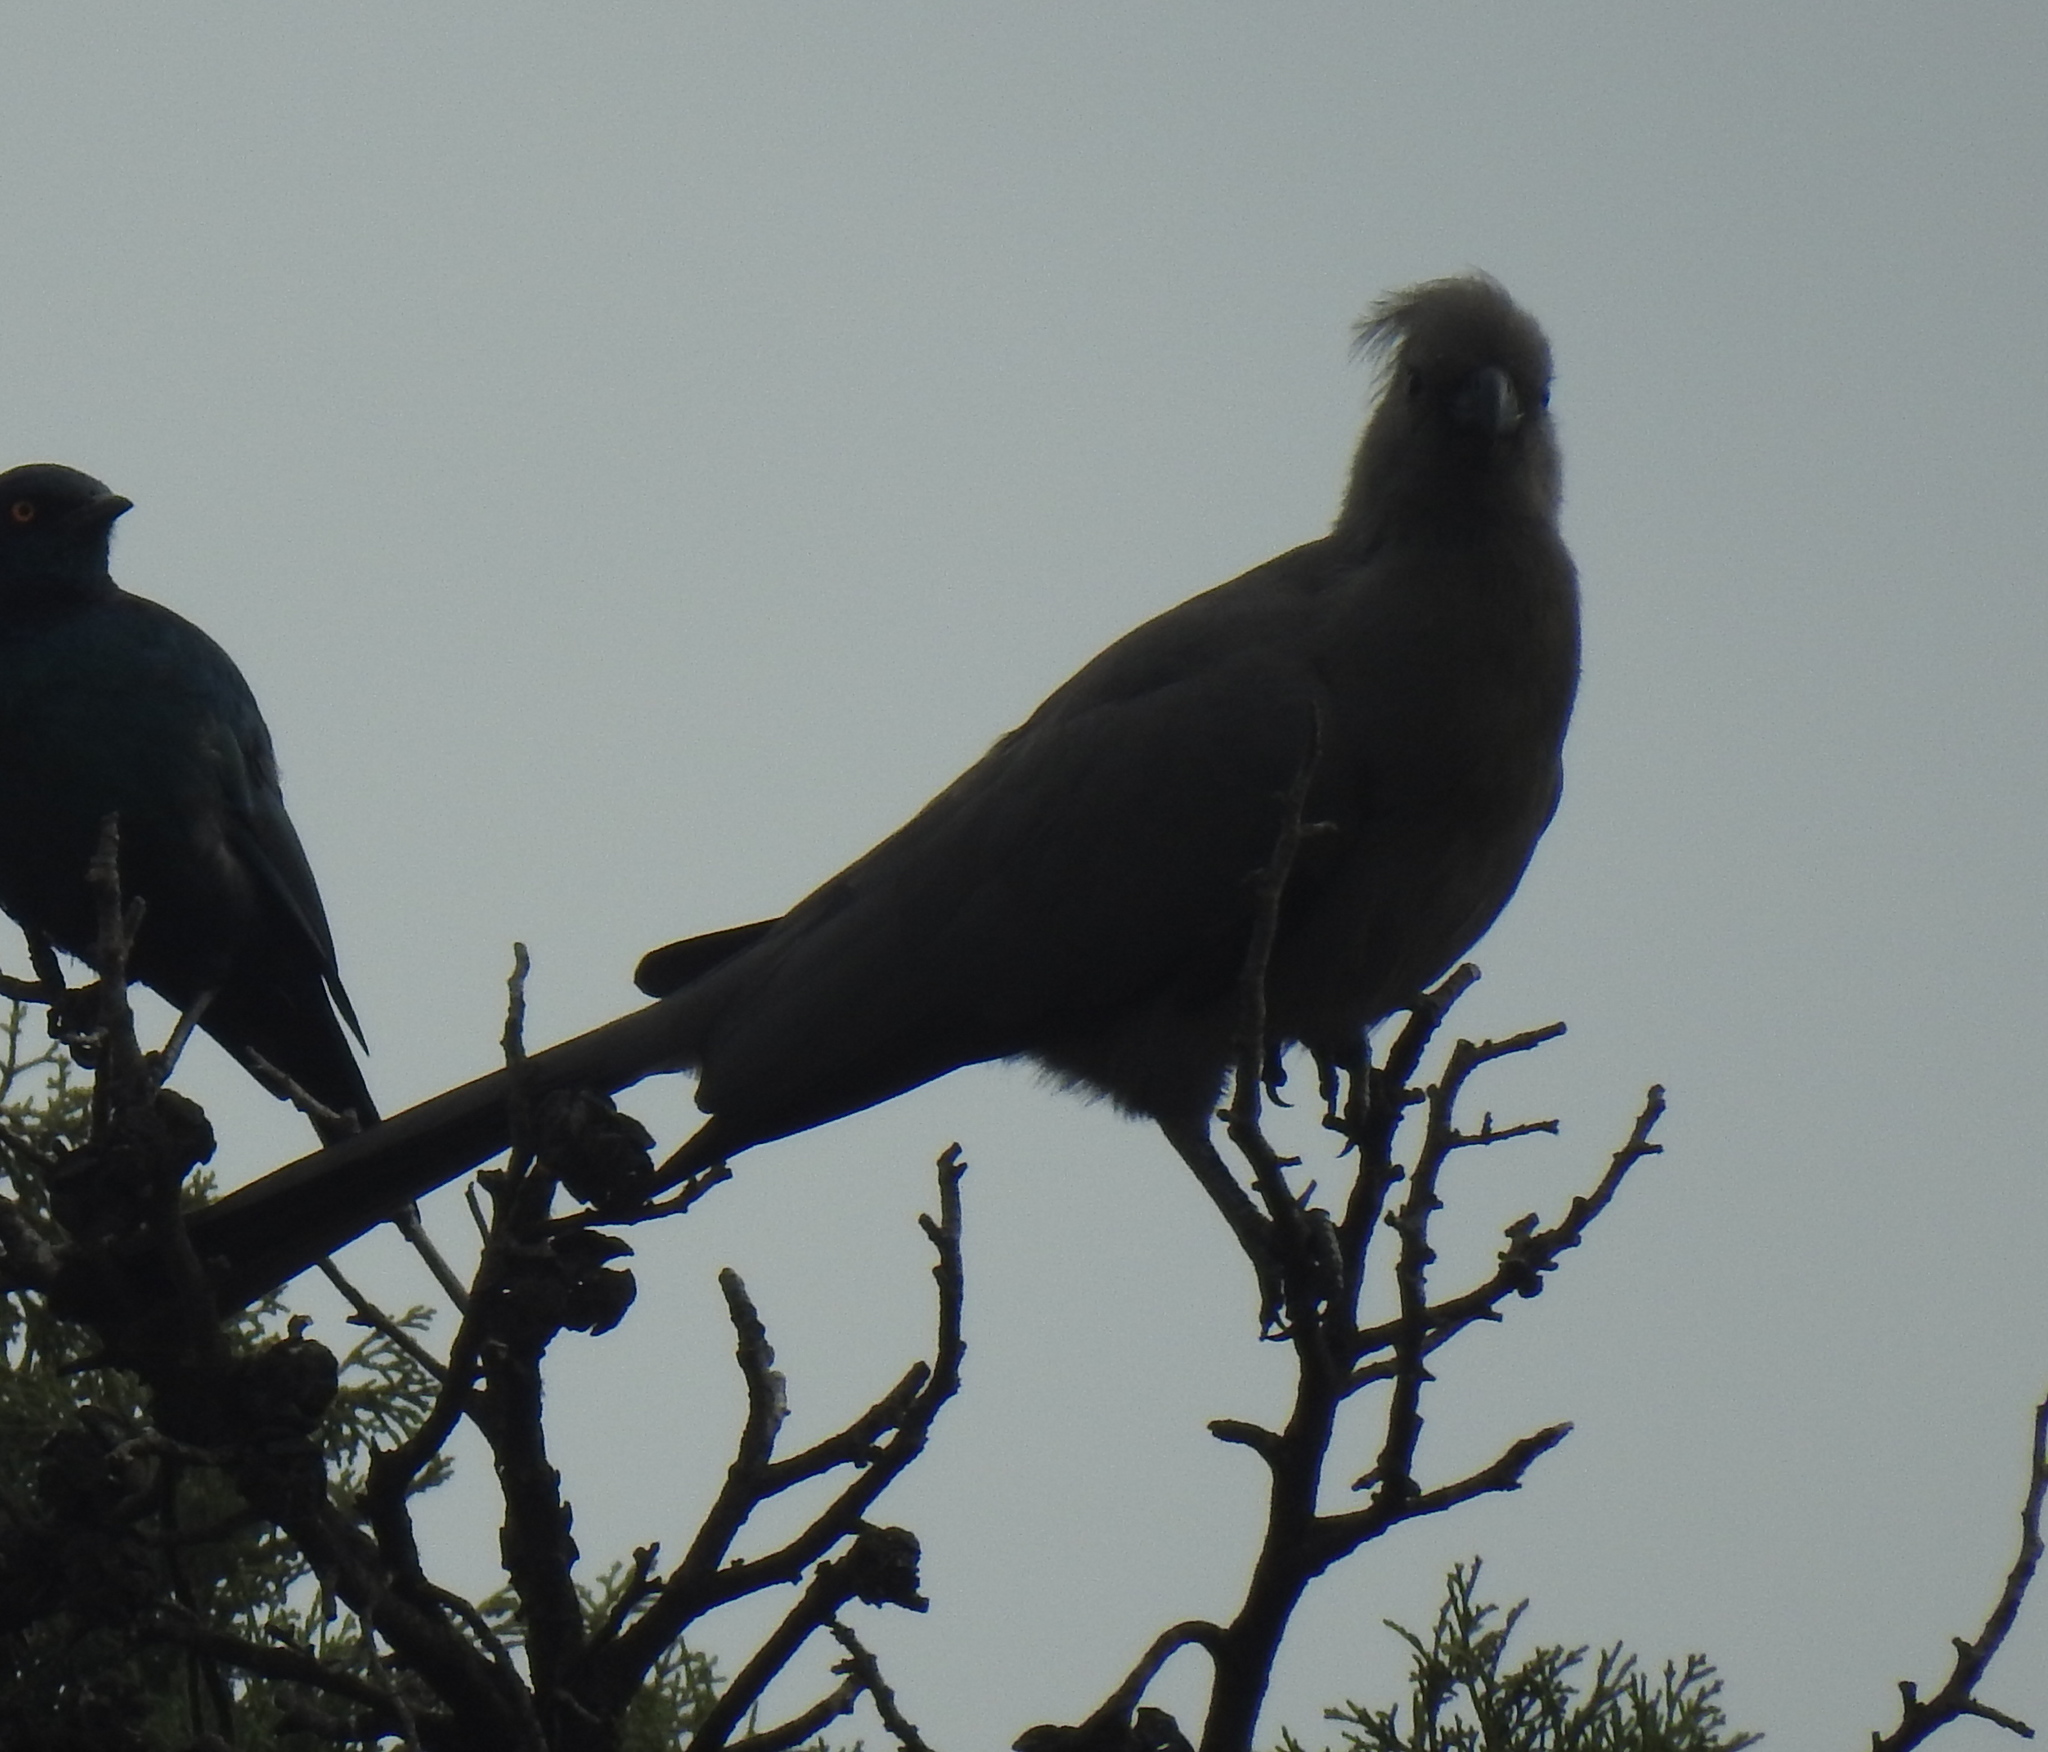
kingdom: Animalia
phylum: Chordata
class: Aves
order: Musophagiformes
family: Musophagidae
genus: Corythaixoides
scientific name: Corythaixoides concolor
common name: Grey go-away-bird
